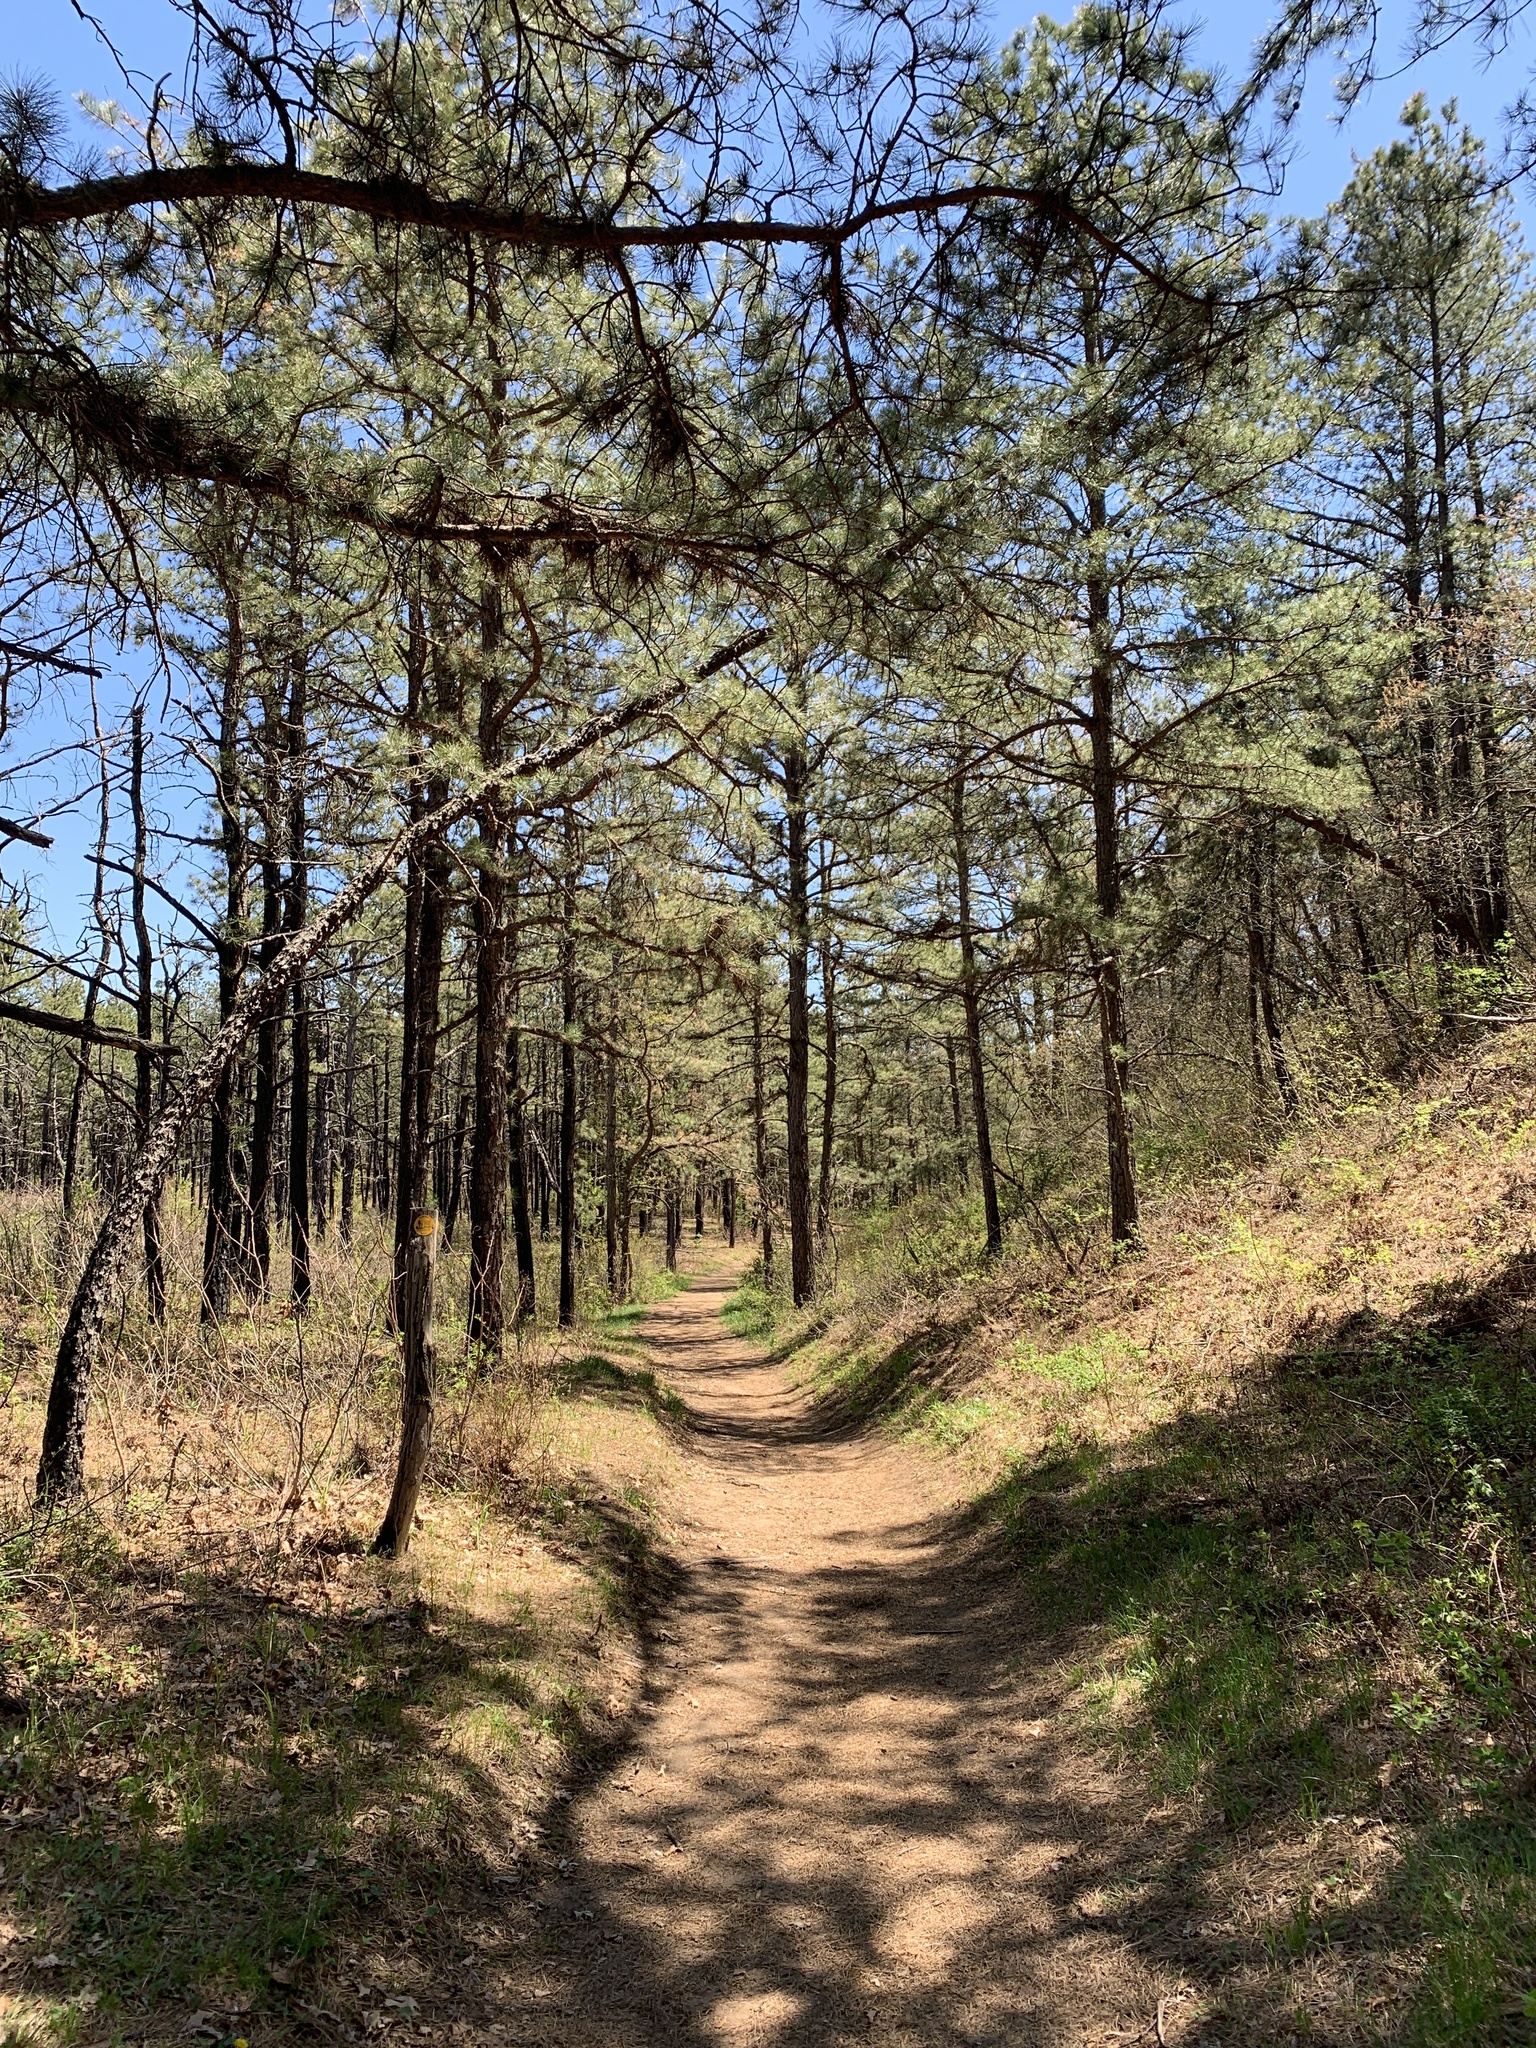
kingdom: Plantae
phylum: Tracheophyta
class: Pinopsida
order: Pinales
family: Pinaceae
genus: Pinus
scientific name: Pinus rigida
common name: Pitch pine
